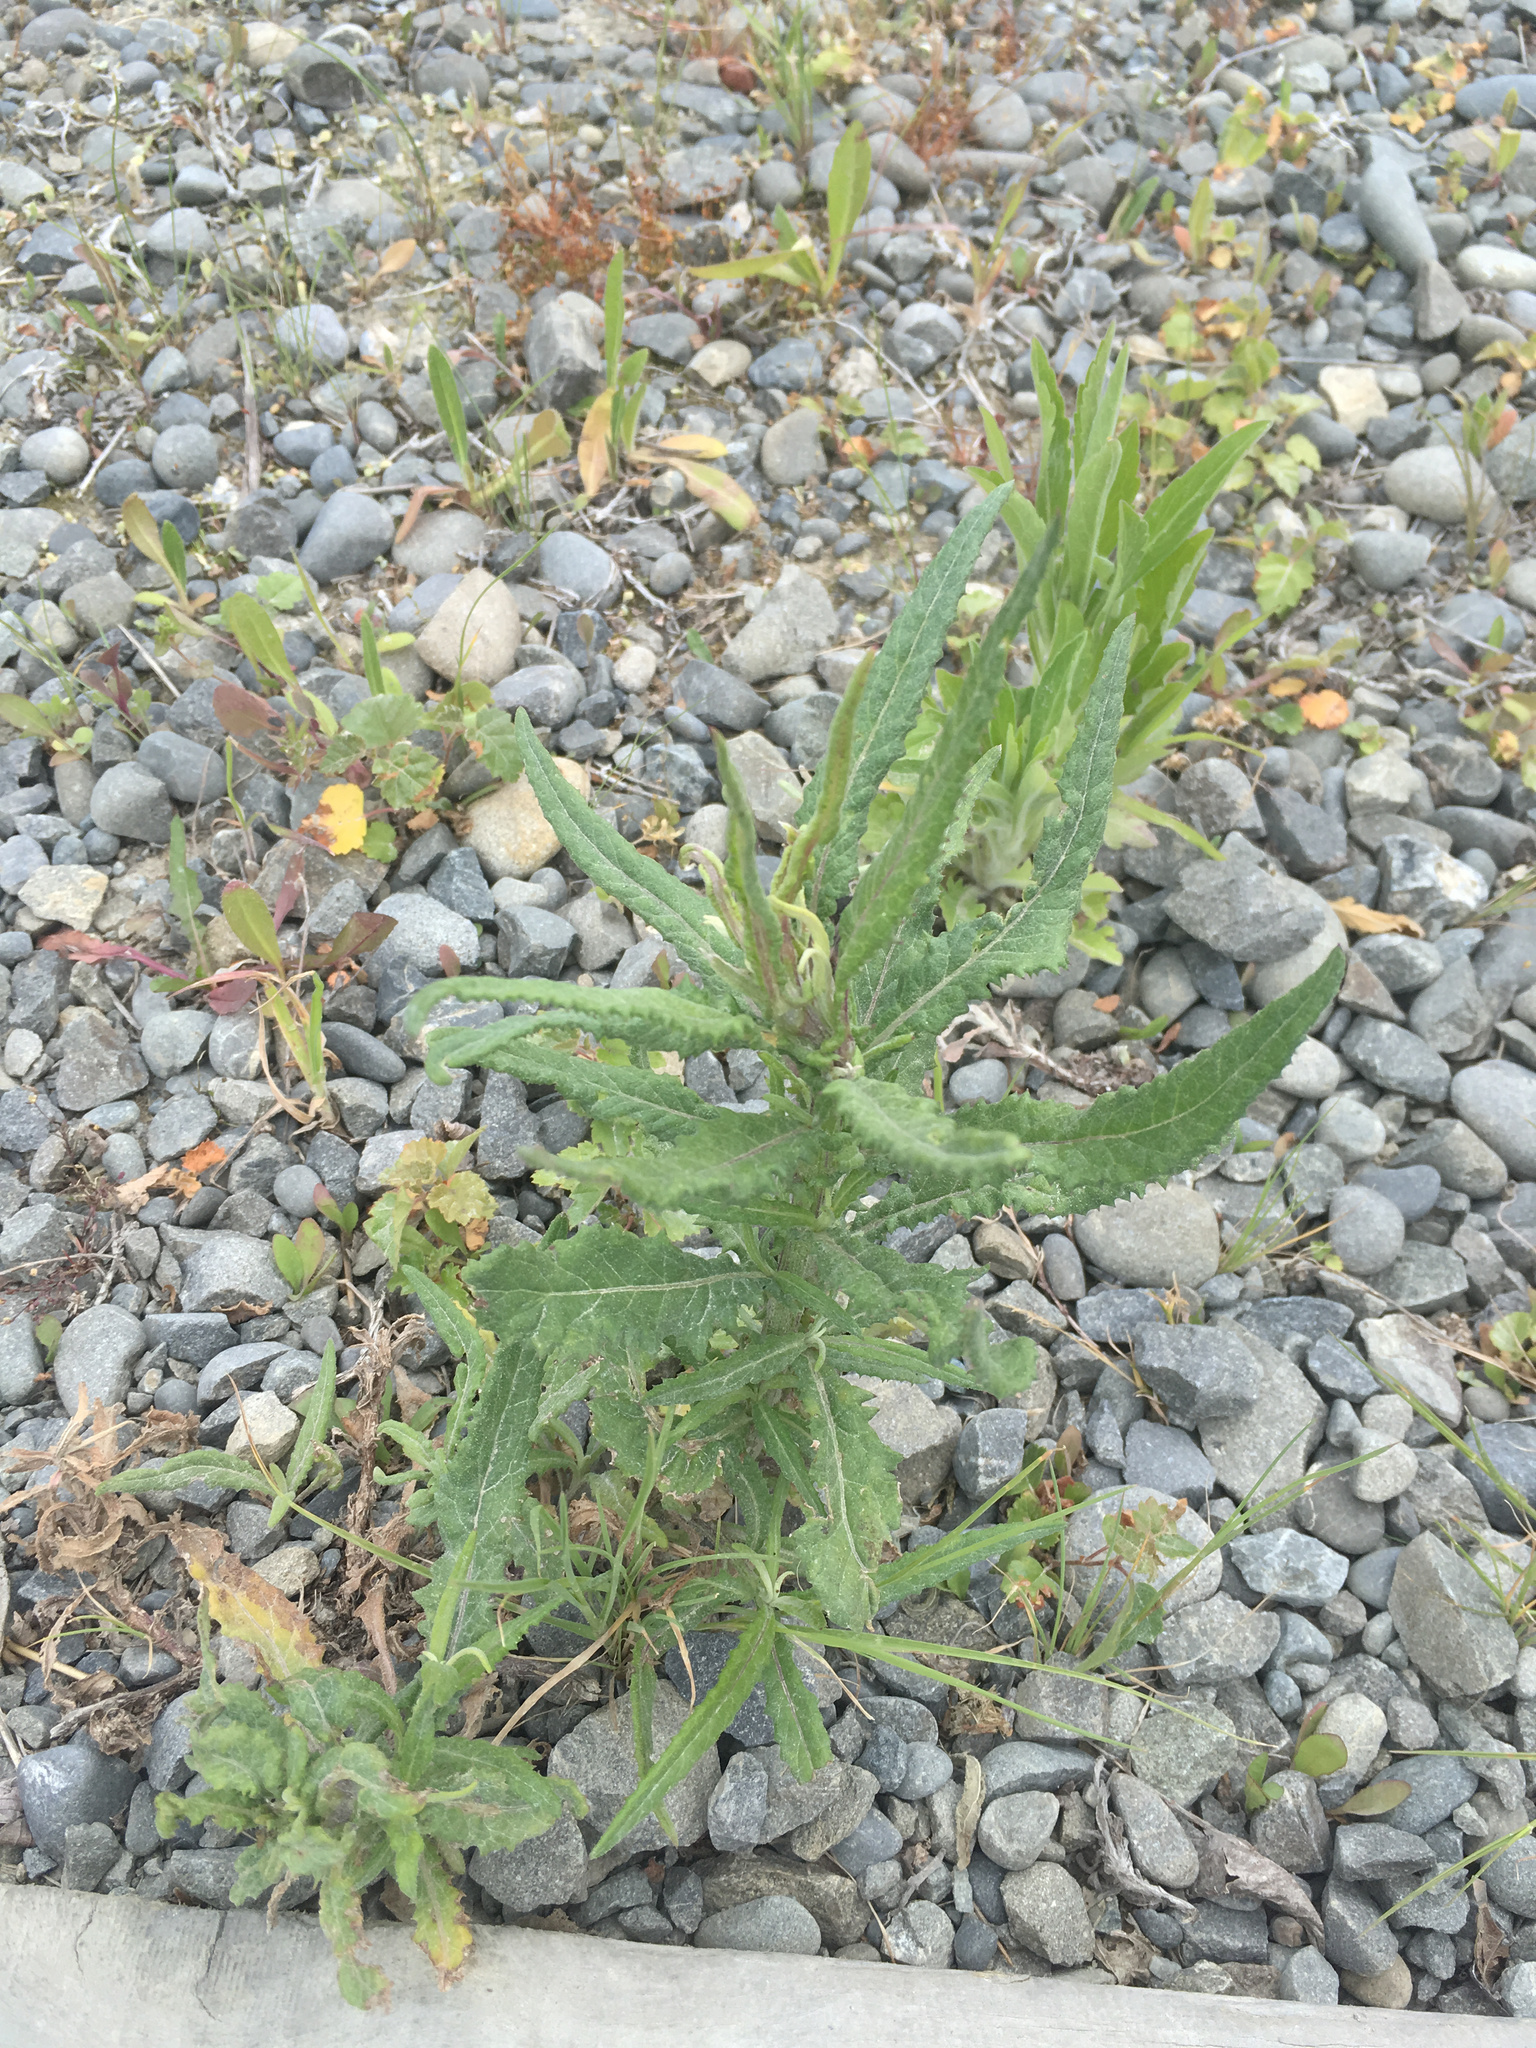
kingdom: Plantae
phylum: Tracheophyta
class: Magnoliopsida
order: Asterales
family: Asteraceae
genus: Senecio
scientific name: Senecio minimus
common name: Toothed fireweed
